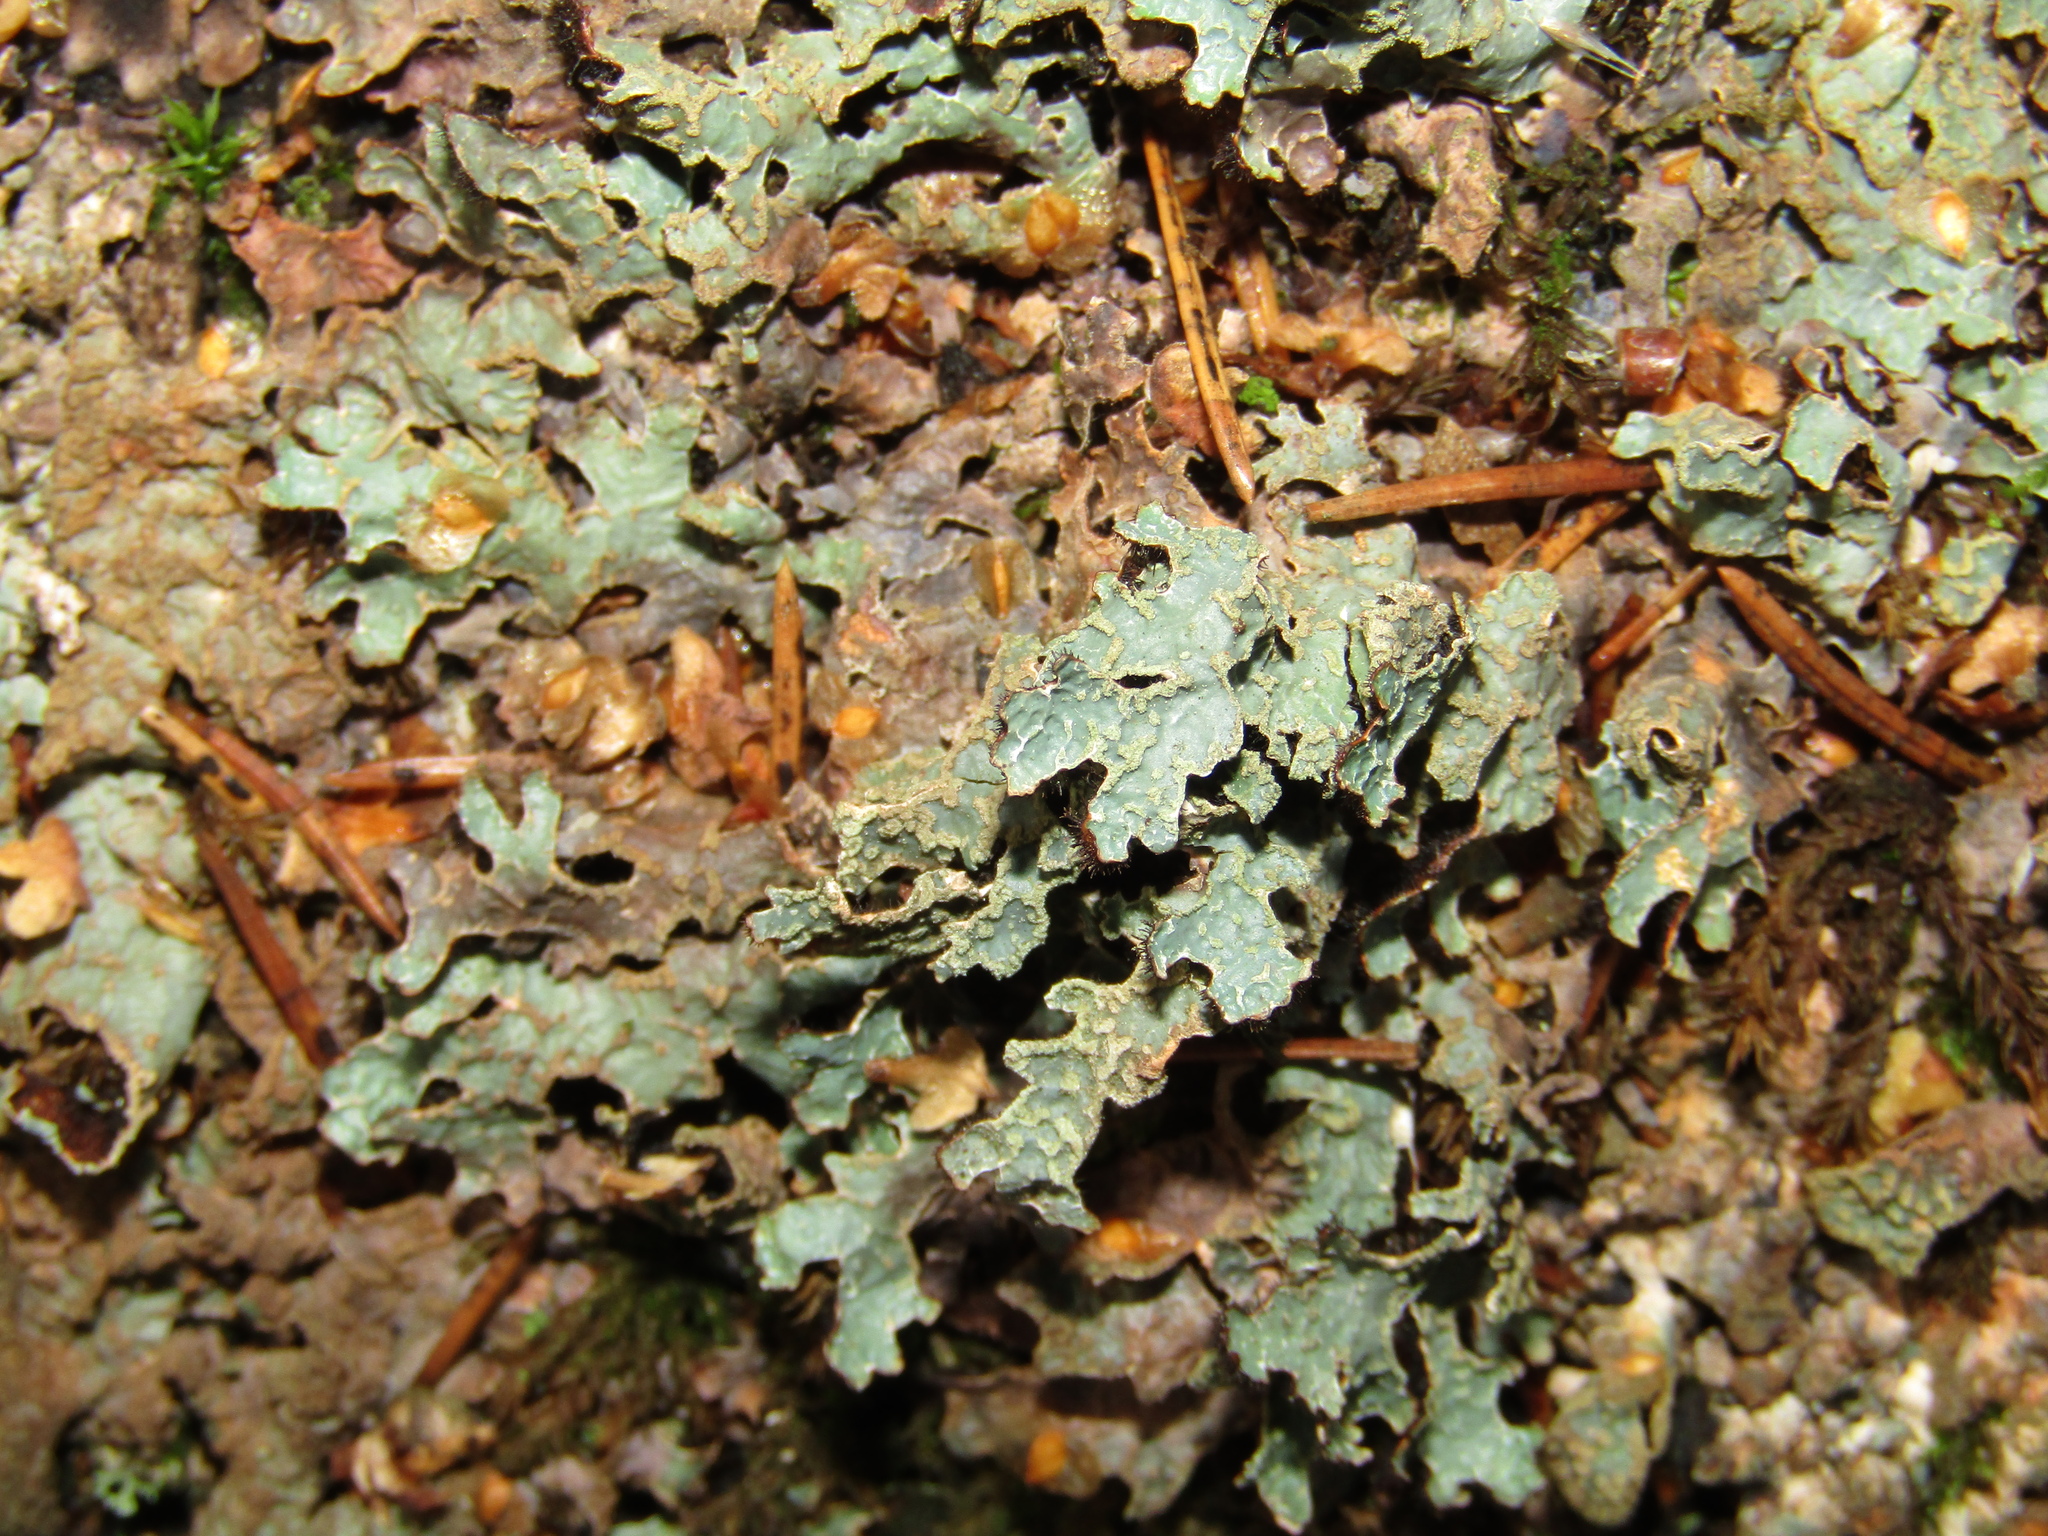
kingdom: Fungi
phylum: Ascomycota
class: Lecanoromycetes
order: Lecanorales
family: Parmeliaceae
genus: Parmelia
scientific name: Parmelia sulcata
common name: Netted shield lichen
